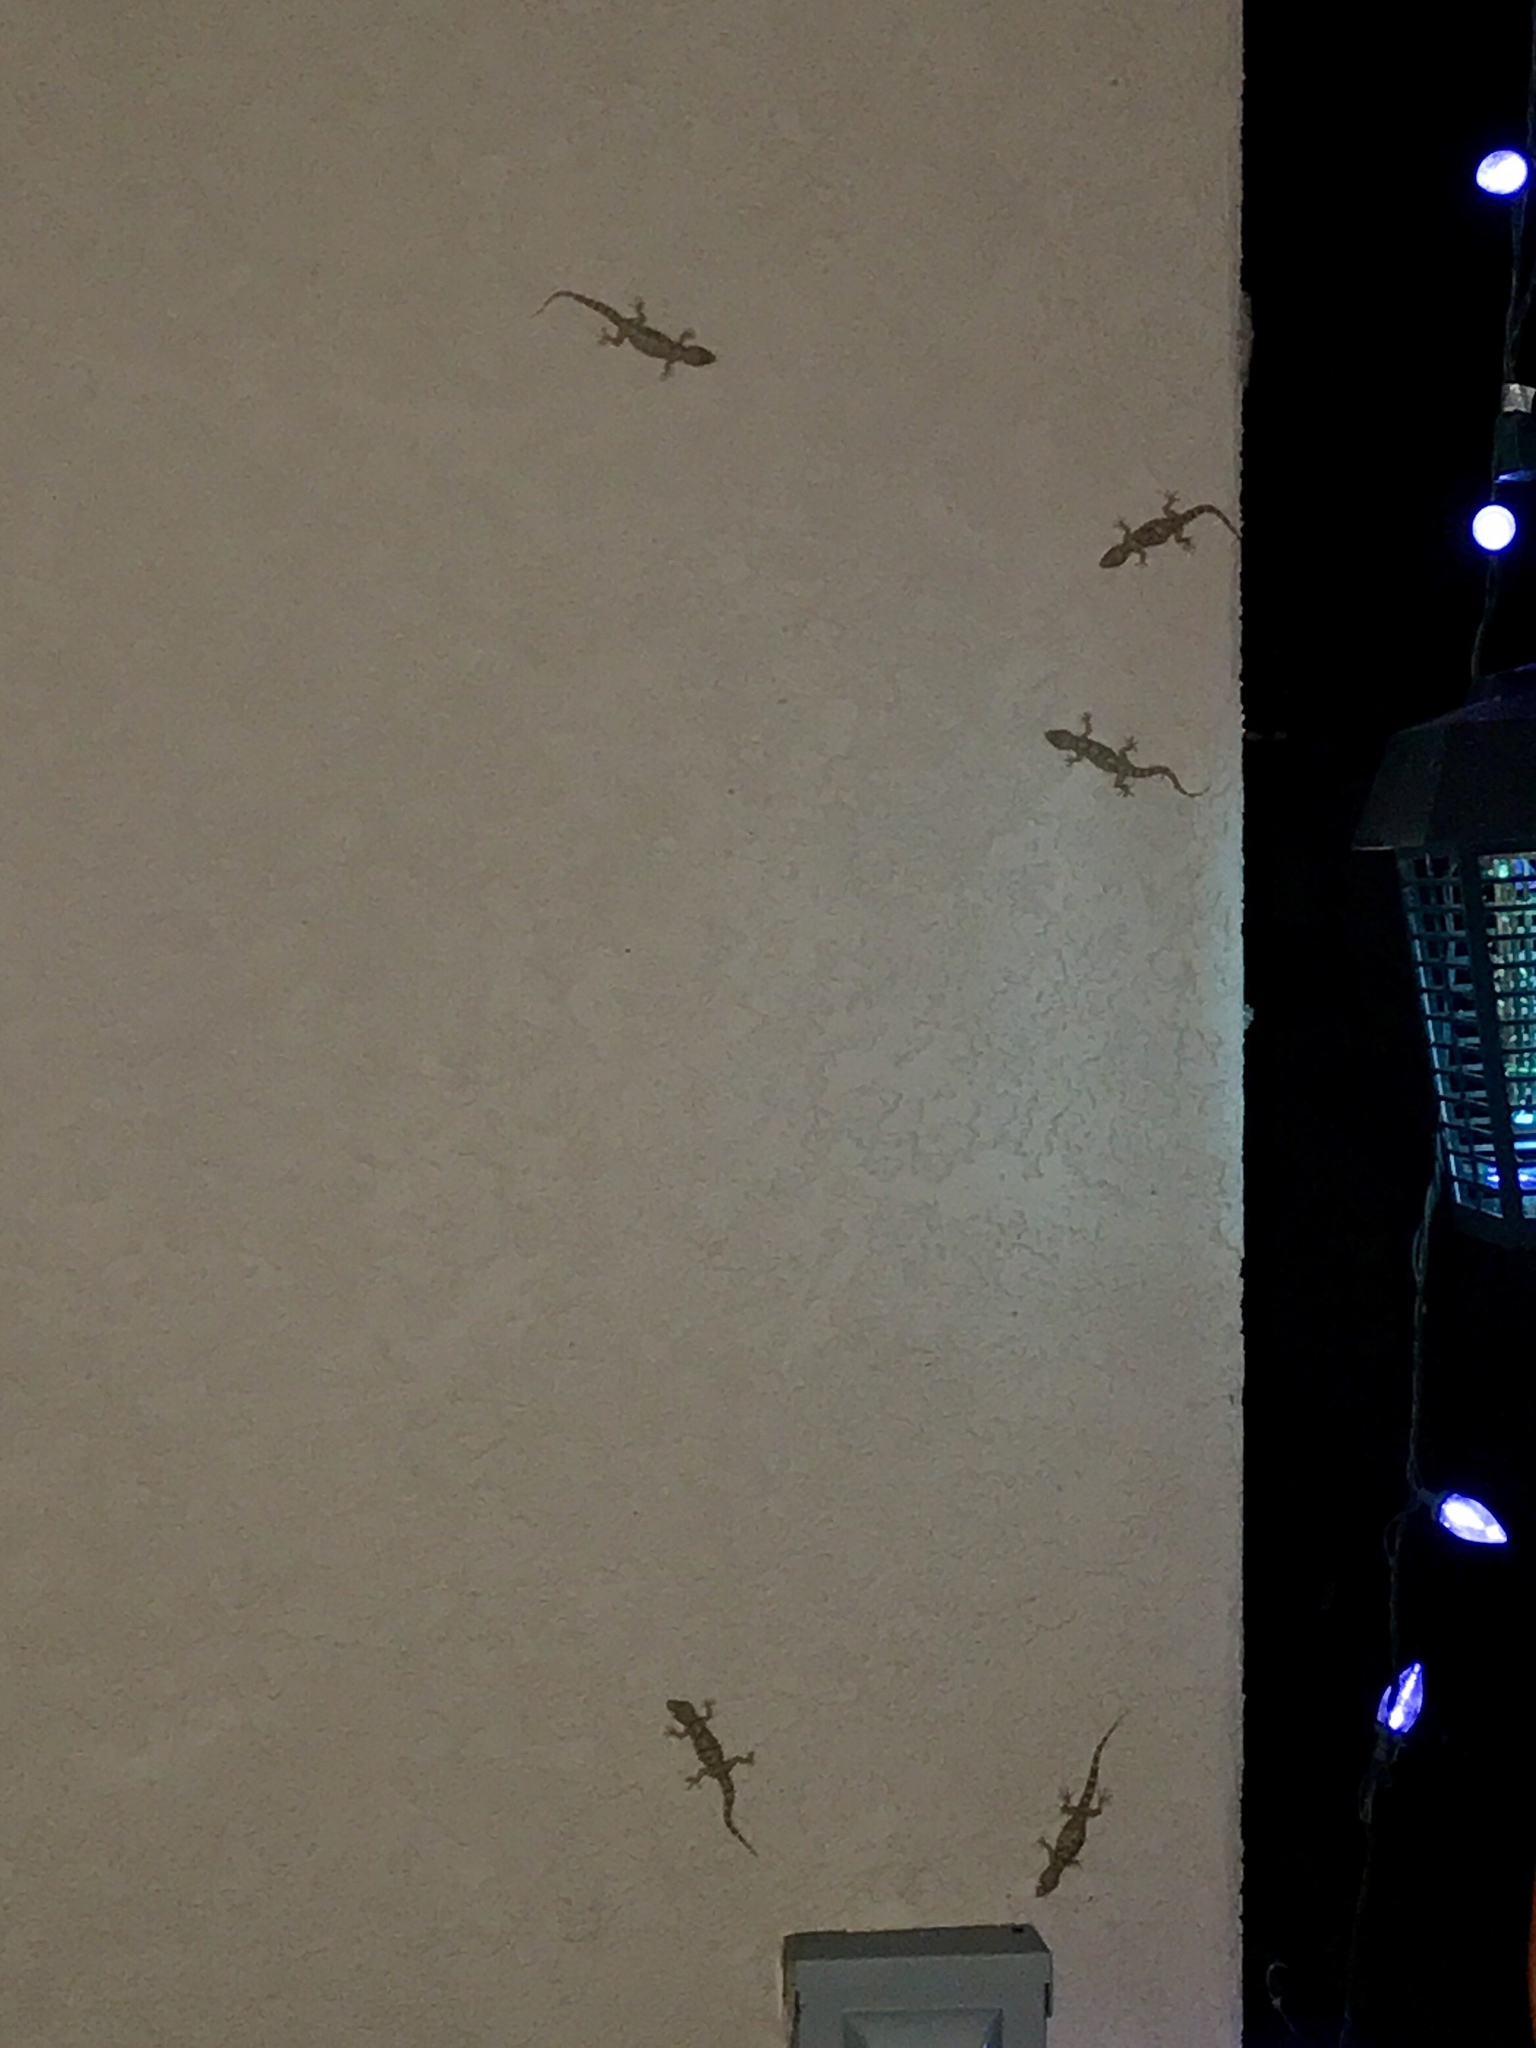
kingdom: Animalia
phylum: Chordata
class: Squamata
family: Gekkonidae
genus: Hemidactylus
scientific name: Hemidactylus turcicus
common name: Turkish gecko
